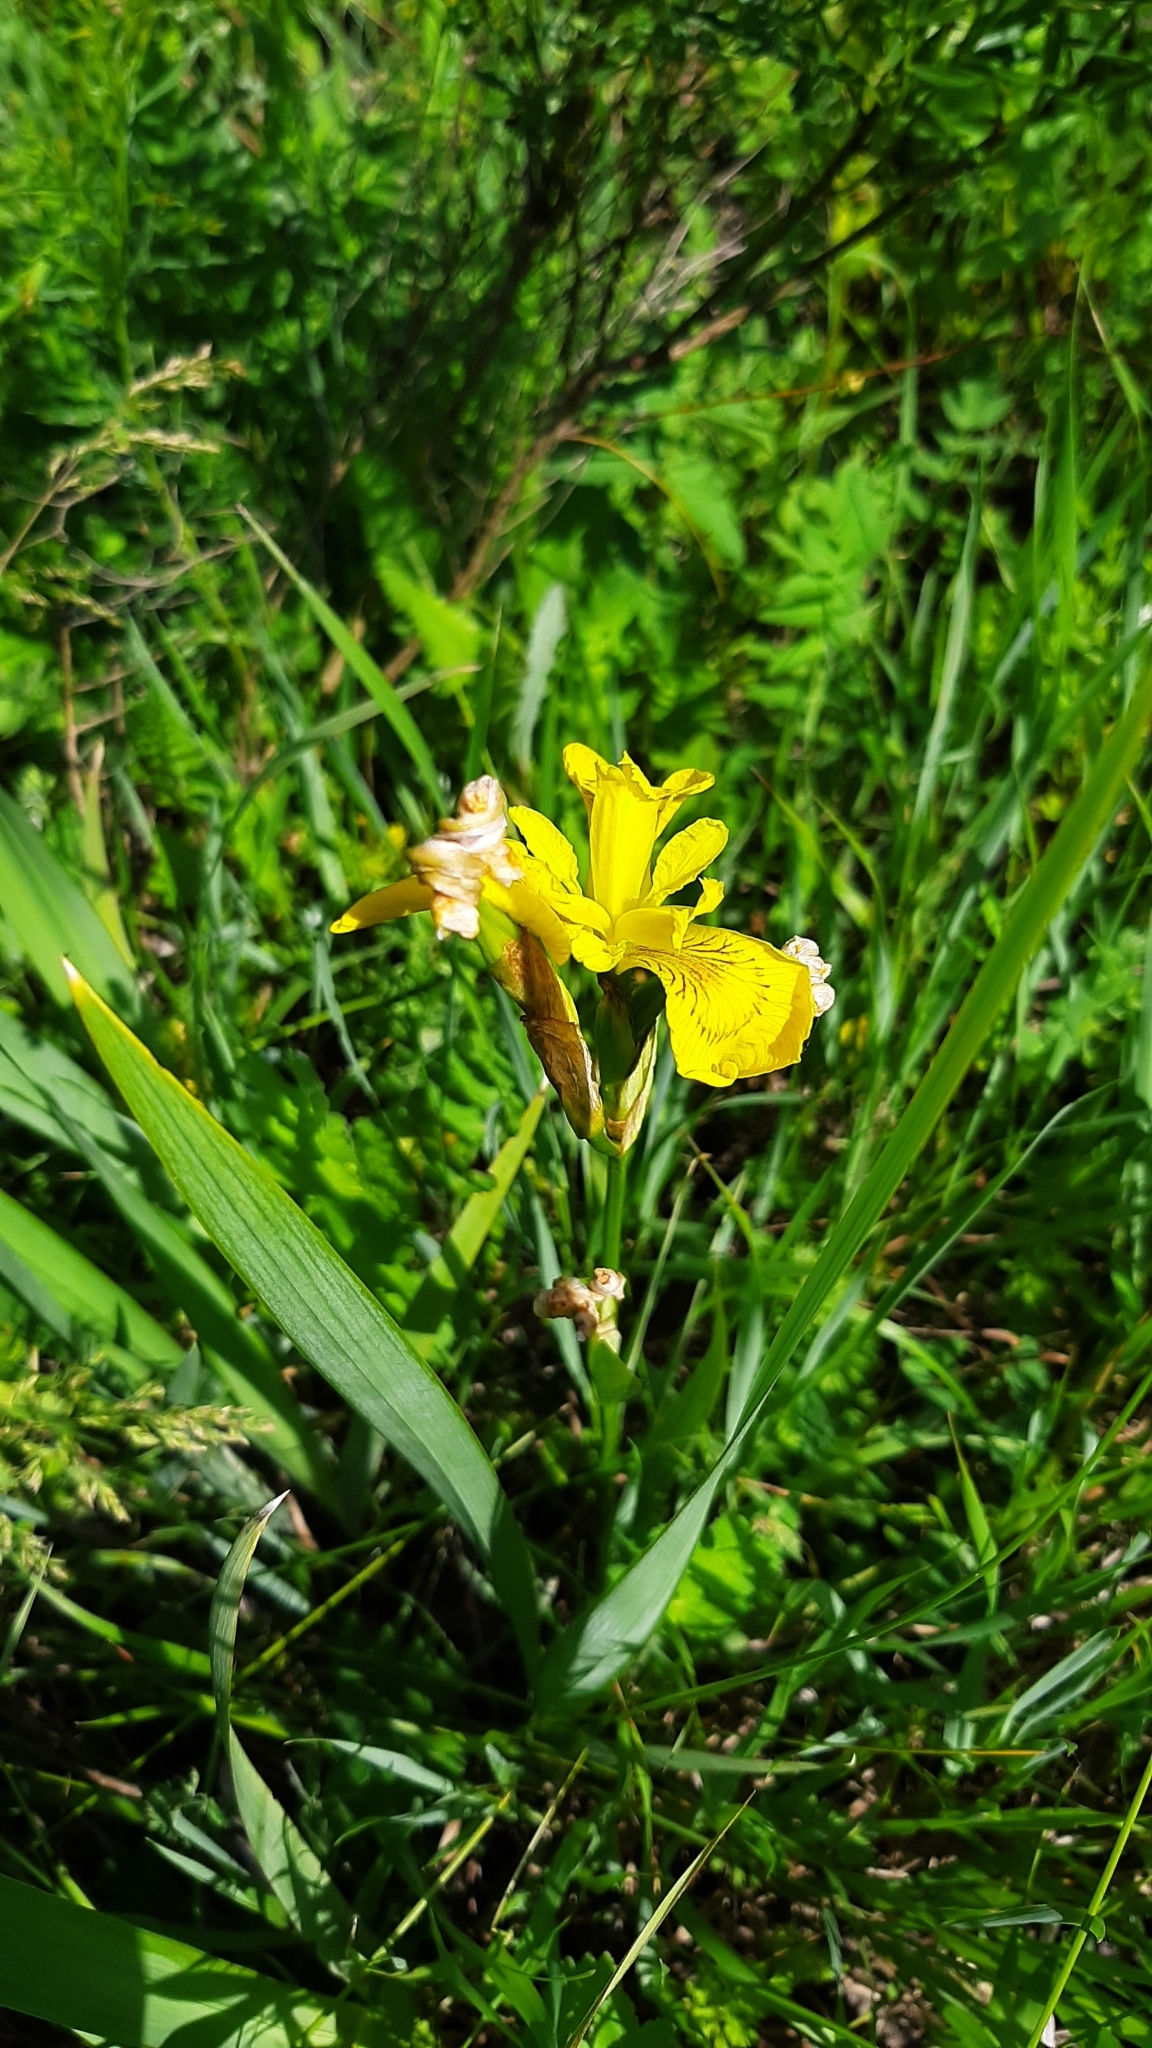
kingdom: Plantae
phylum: Tracheophyta
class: Liliopsida
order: Asparagales
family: Iridaceae
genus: Iris
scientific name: Iris pseudacorus
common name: Yellow flag
